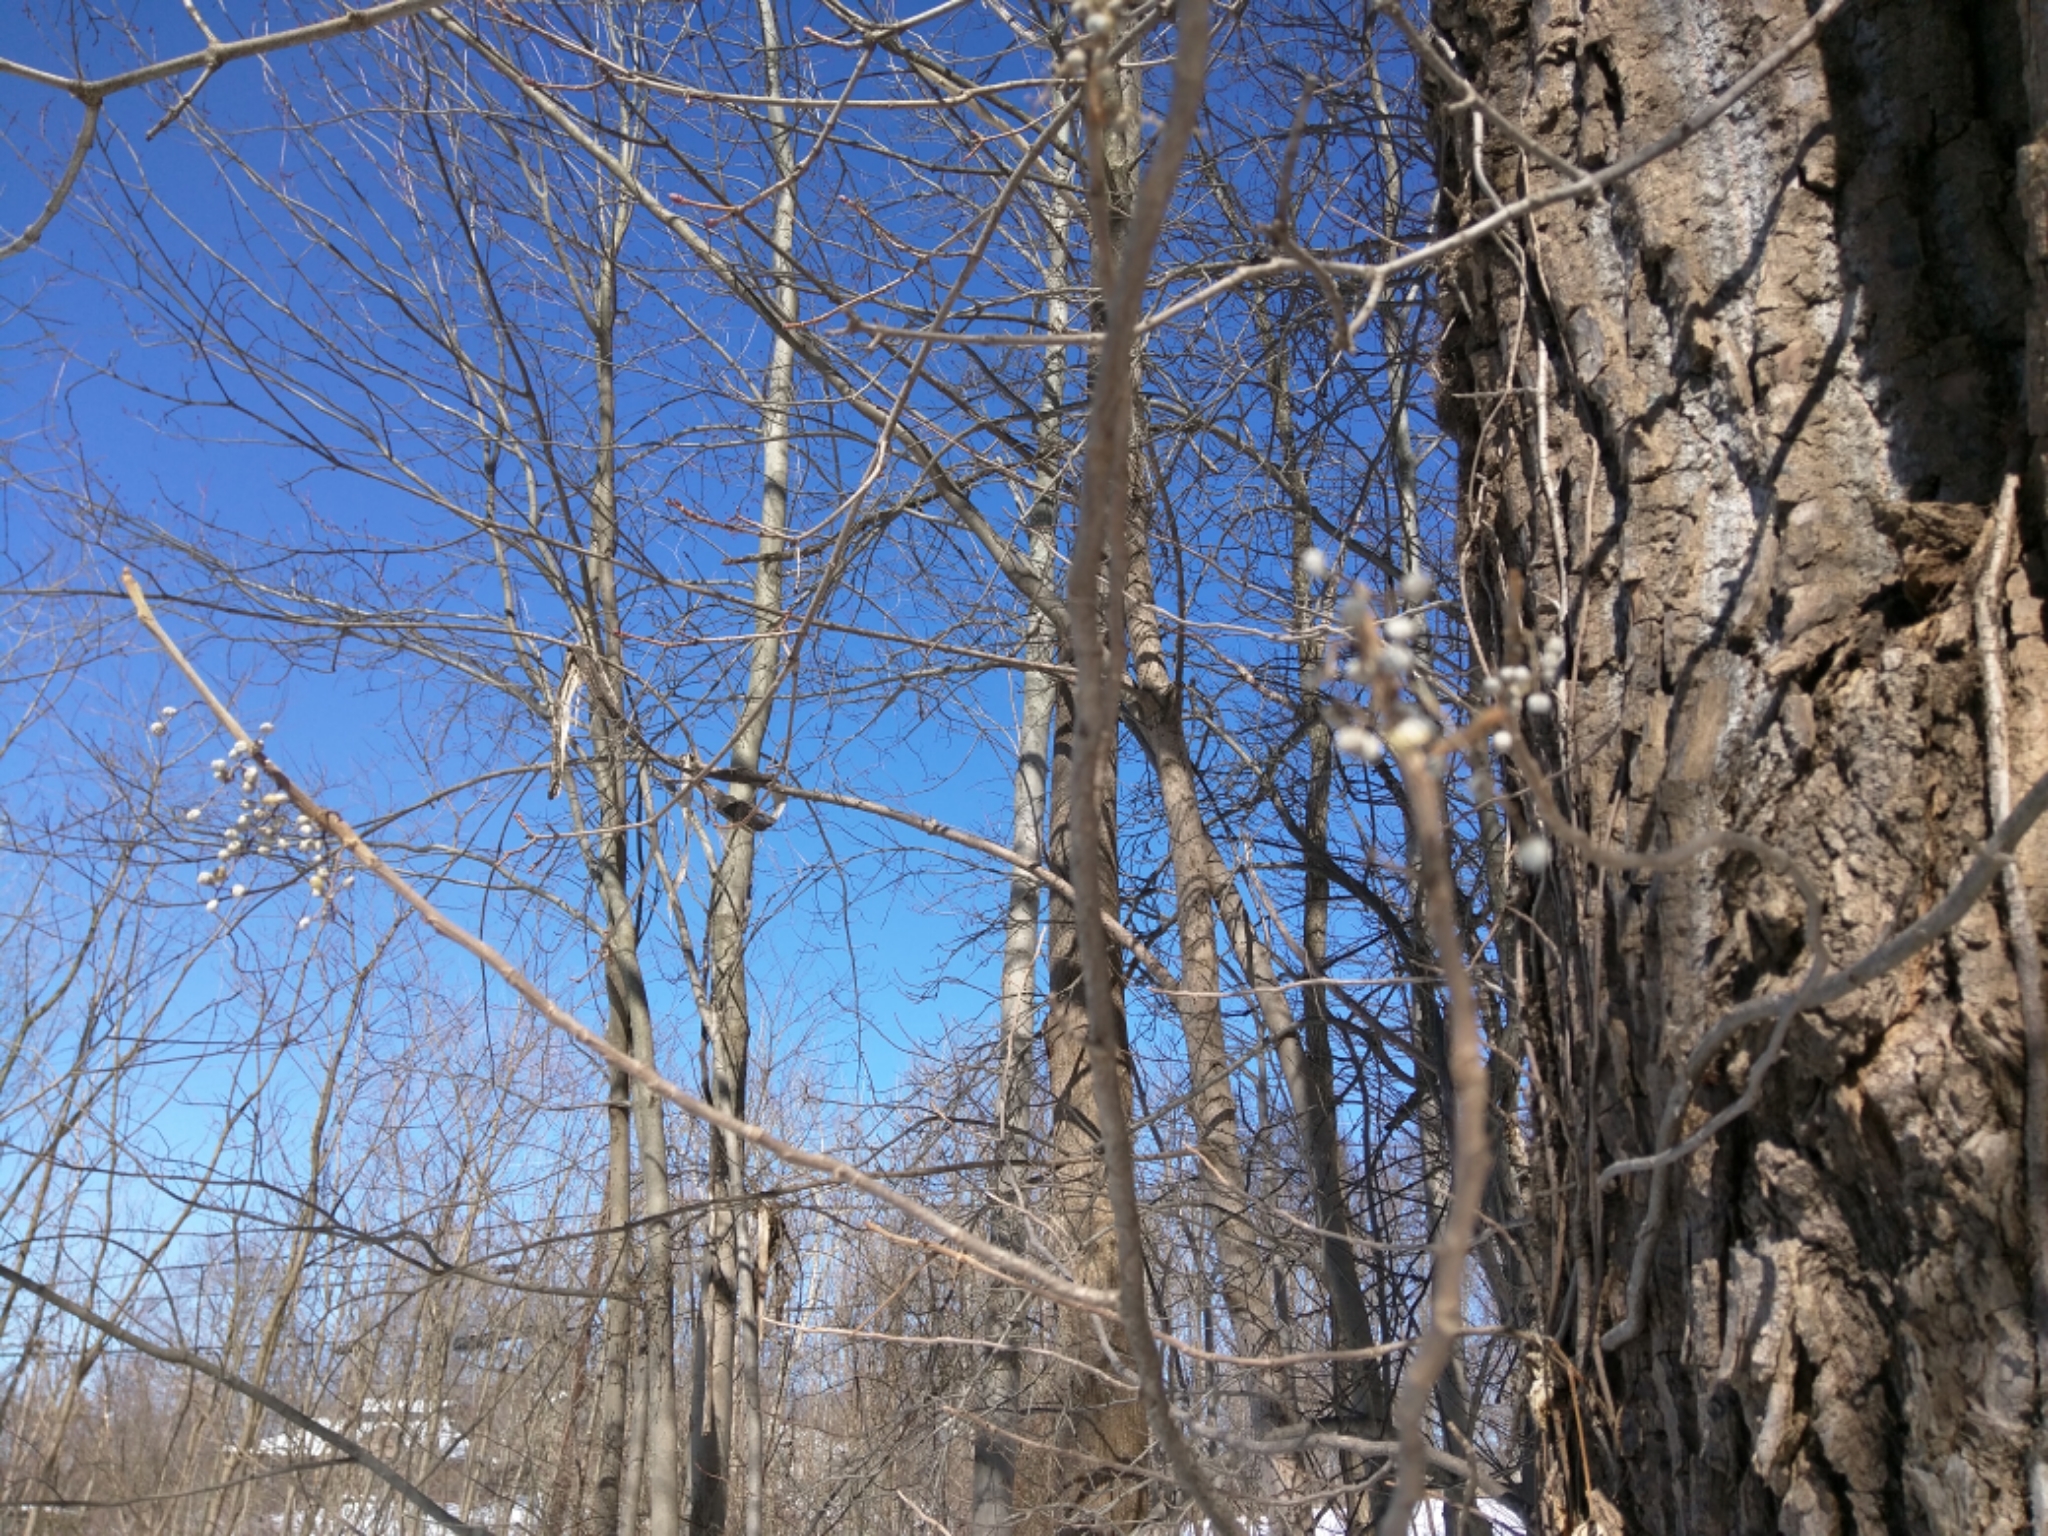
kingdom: Plantae
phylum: Tracheophyta
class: Magnoliopsida
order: Sapindales
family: Anacardiaceae
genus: Toxicodendron
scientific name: Toxicodendron radicans
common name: Poison ivy
